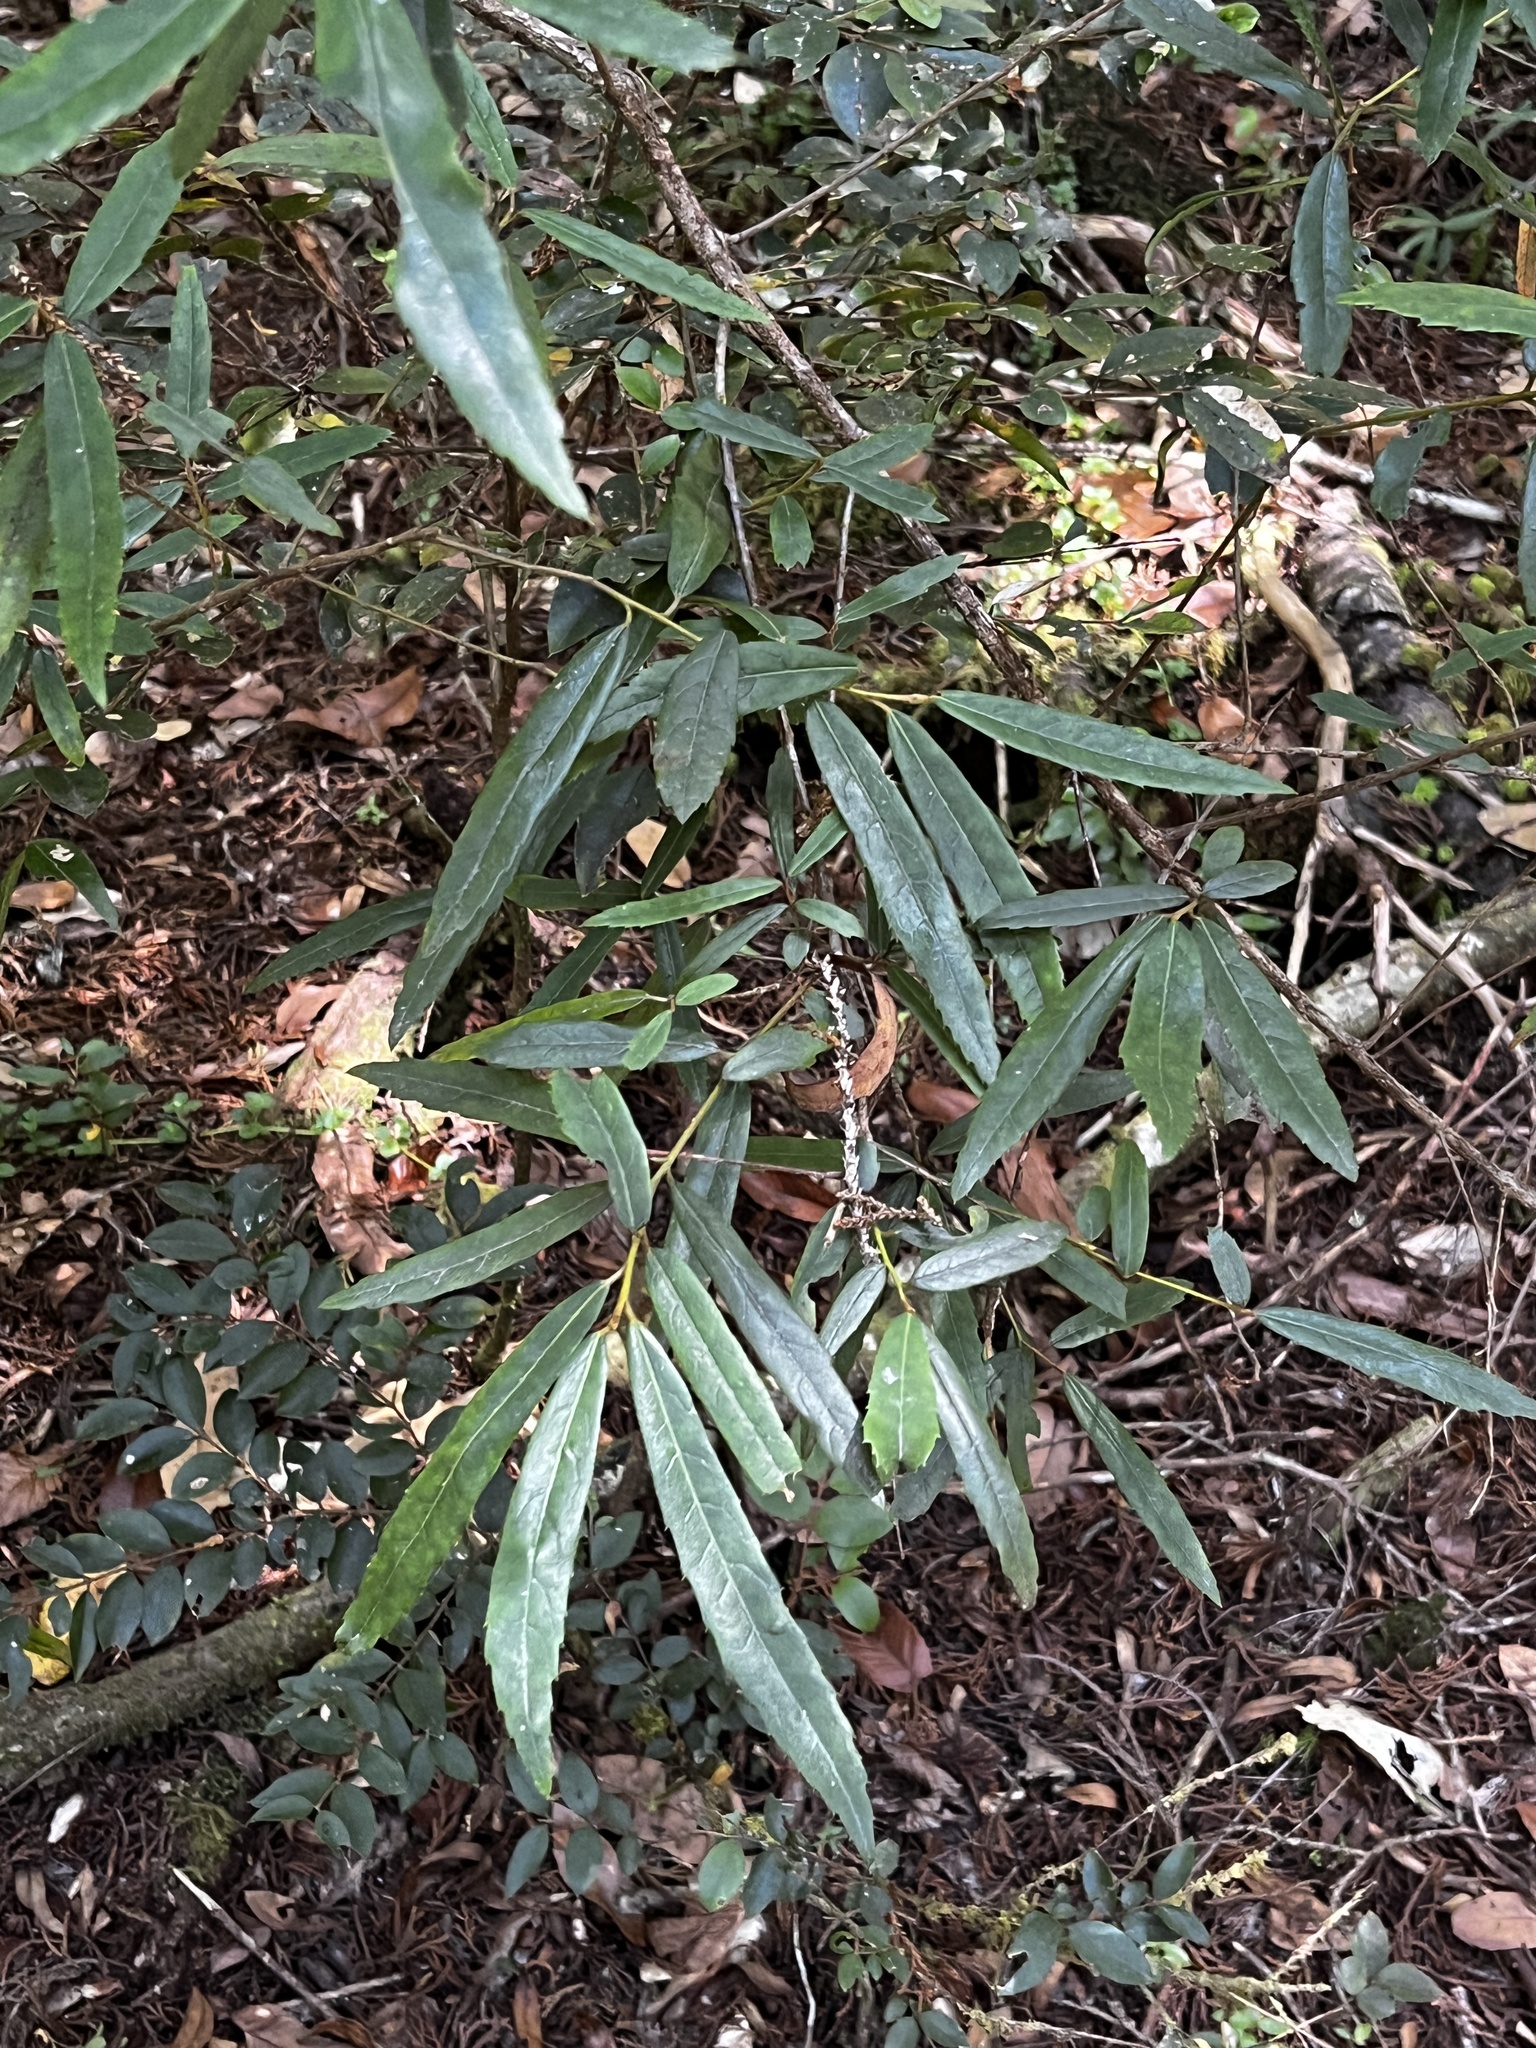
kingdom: Plantae
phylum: Tracheophyta
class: Magnoliopsida
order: Oxalidales
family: Elaeocarpaceae
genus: Crinodendron
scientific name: Crinodendron hookerianum
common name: Lanterntree
